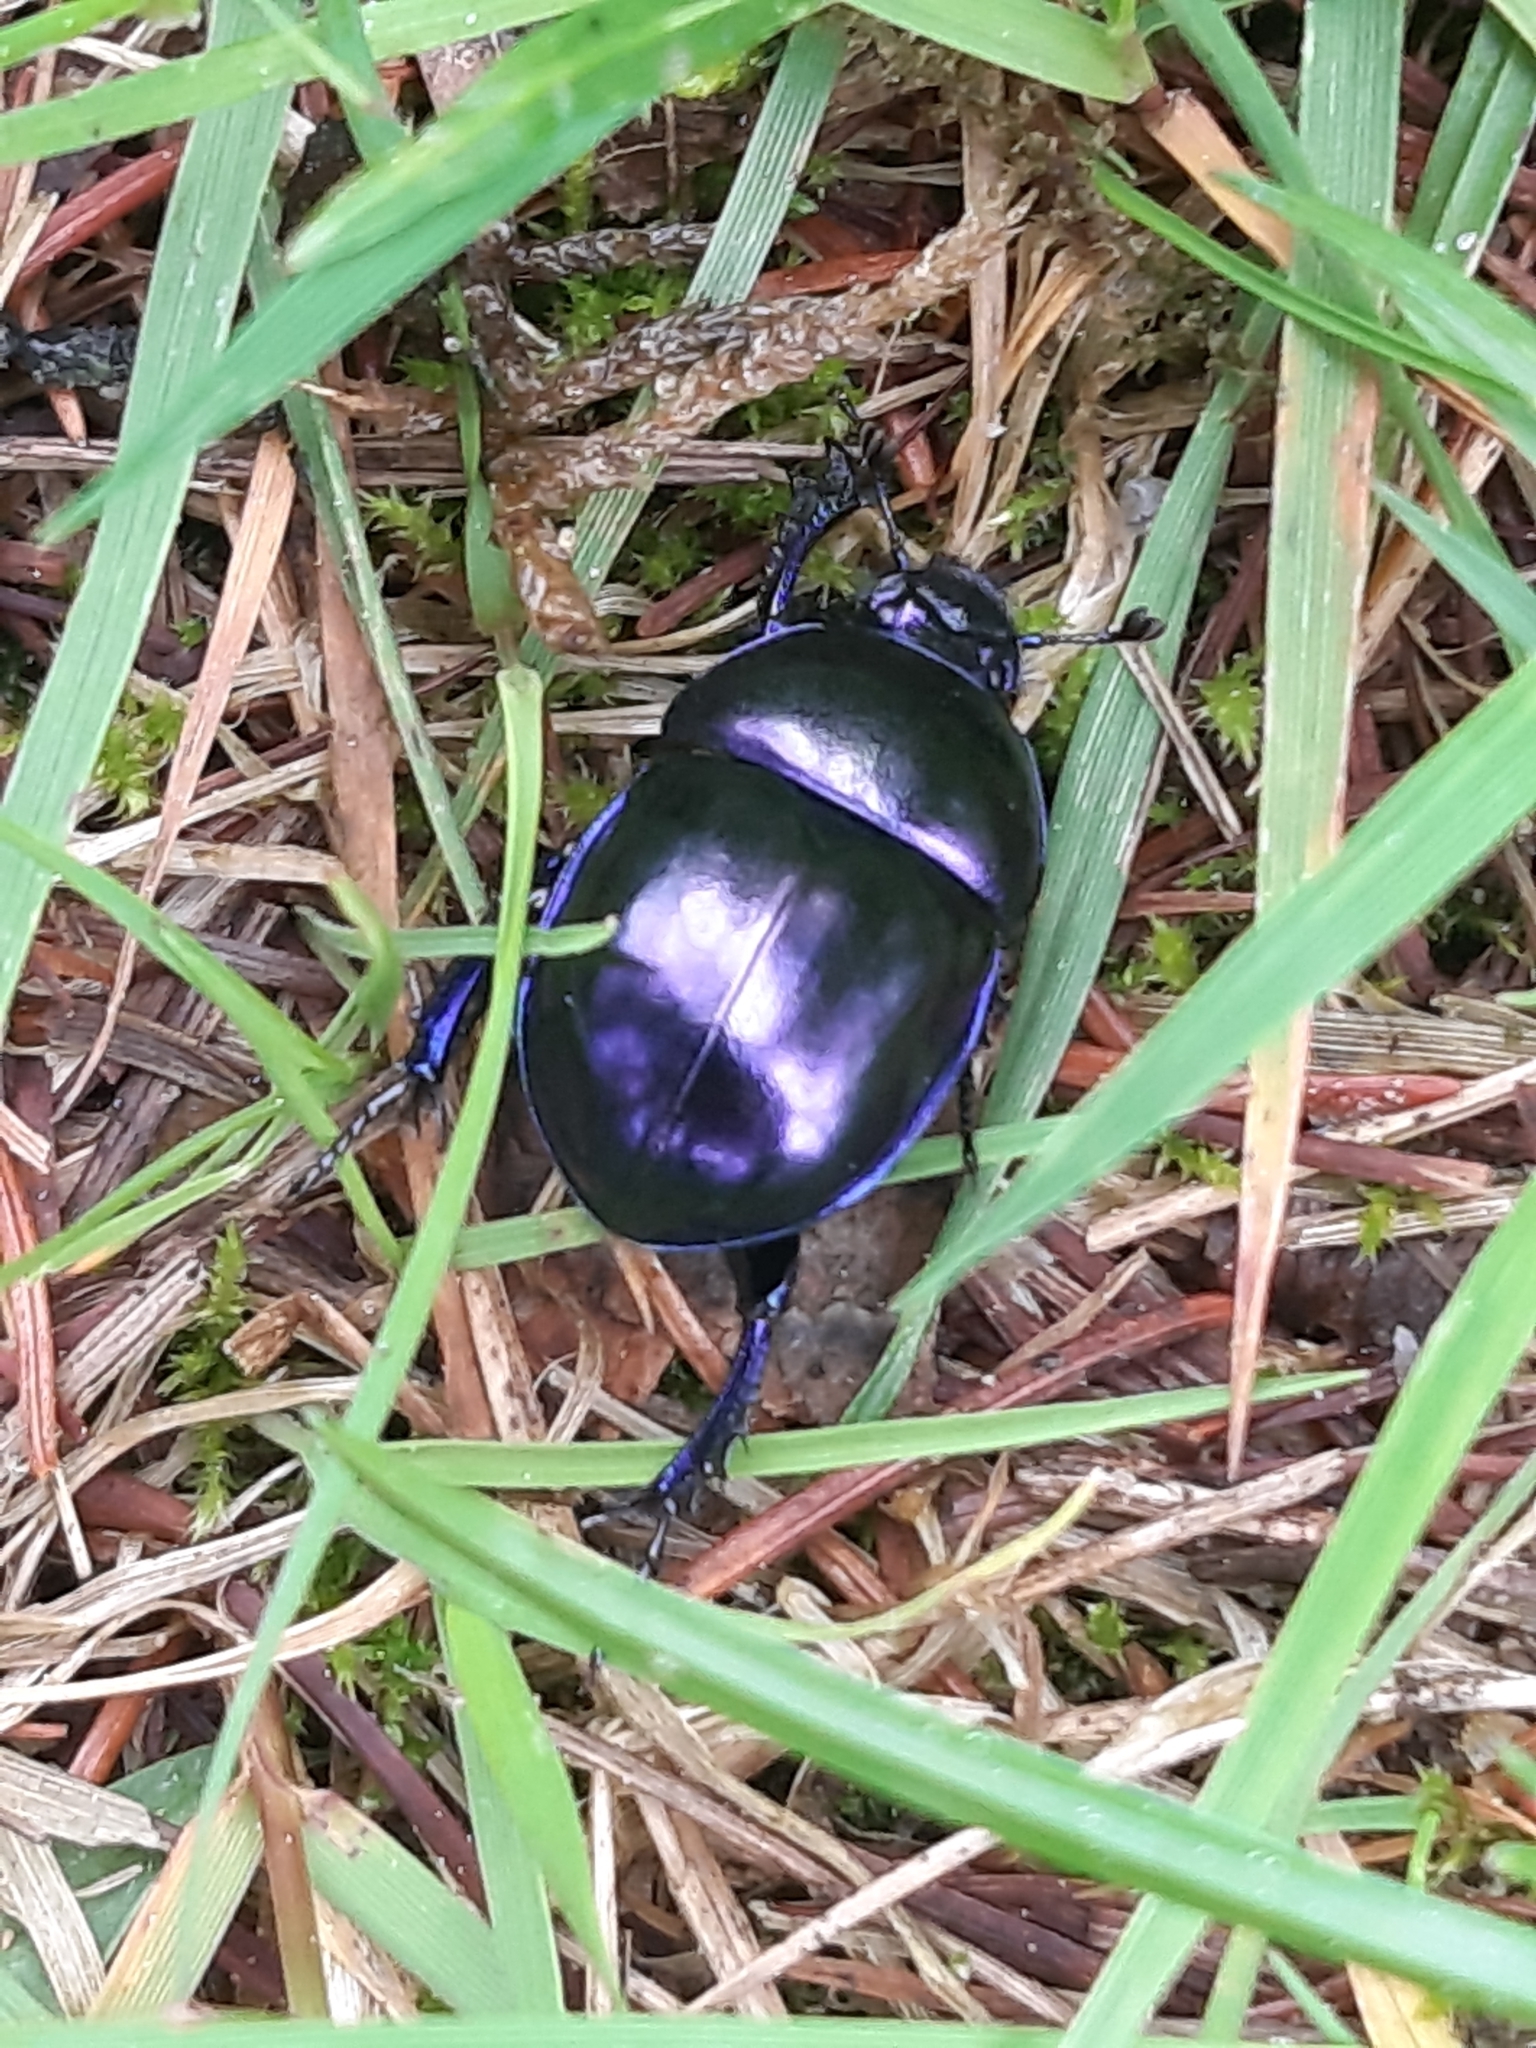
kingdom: Animalia
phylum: Arthropoda
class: Insecta
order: Coleoptera
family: Geotrupidae
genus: Trypocopris
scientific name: Trypocopris vernalis
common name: Spring dumbledor
